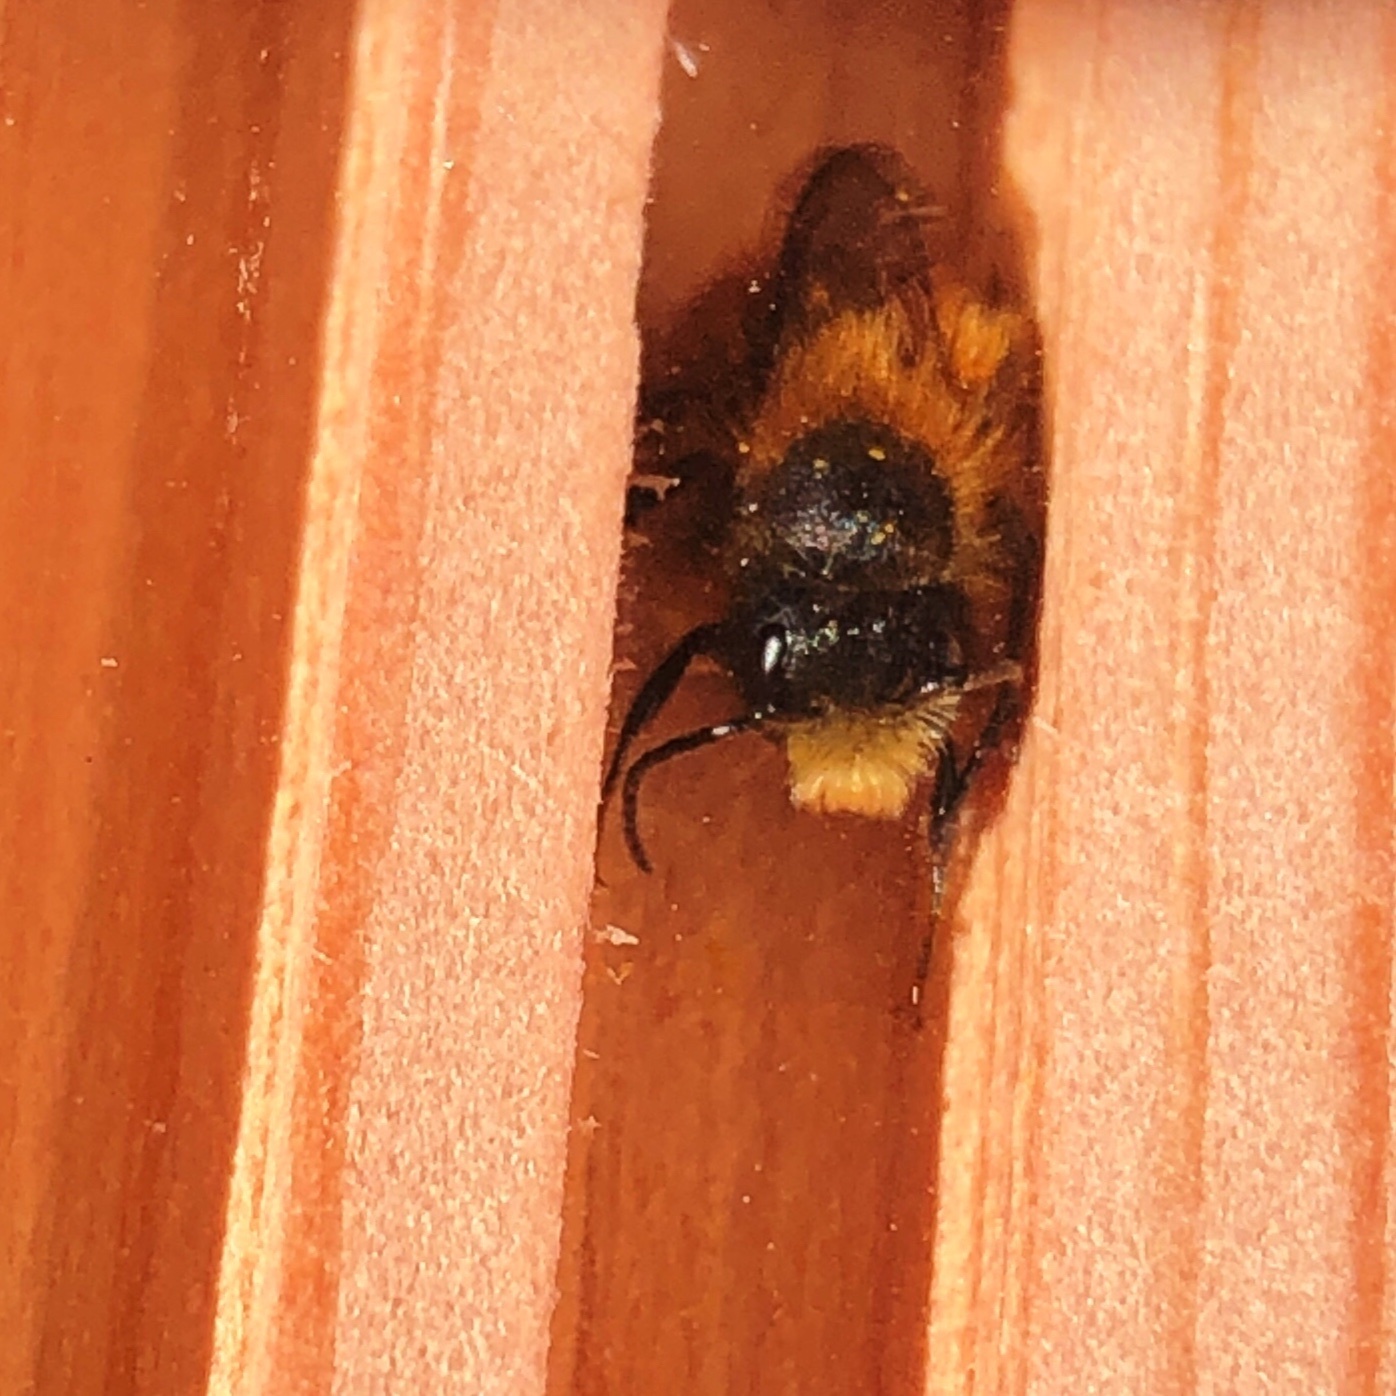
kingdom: Animalia
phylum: Arthropoda
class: Insecta
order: Hymenoptera
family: Megachilidae
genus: Osmia
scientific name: Osmia bicornis
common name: Red mason bee
